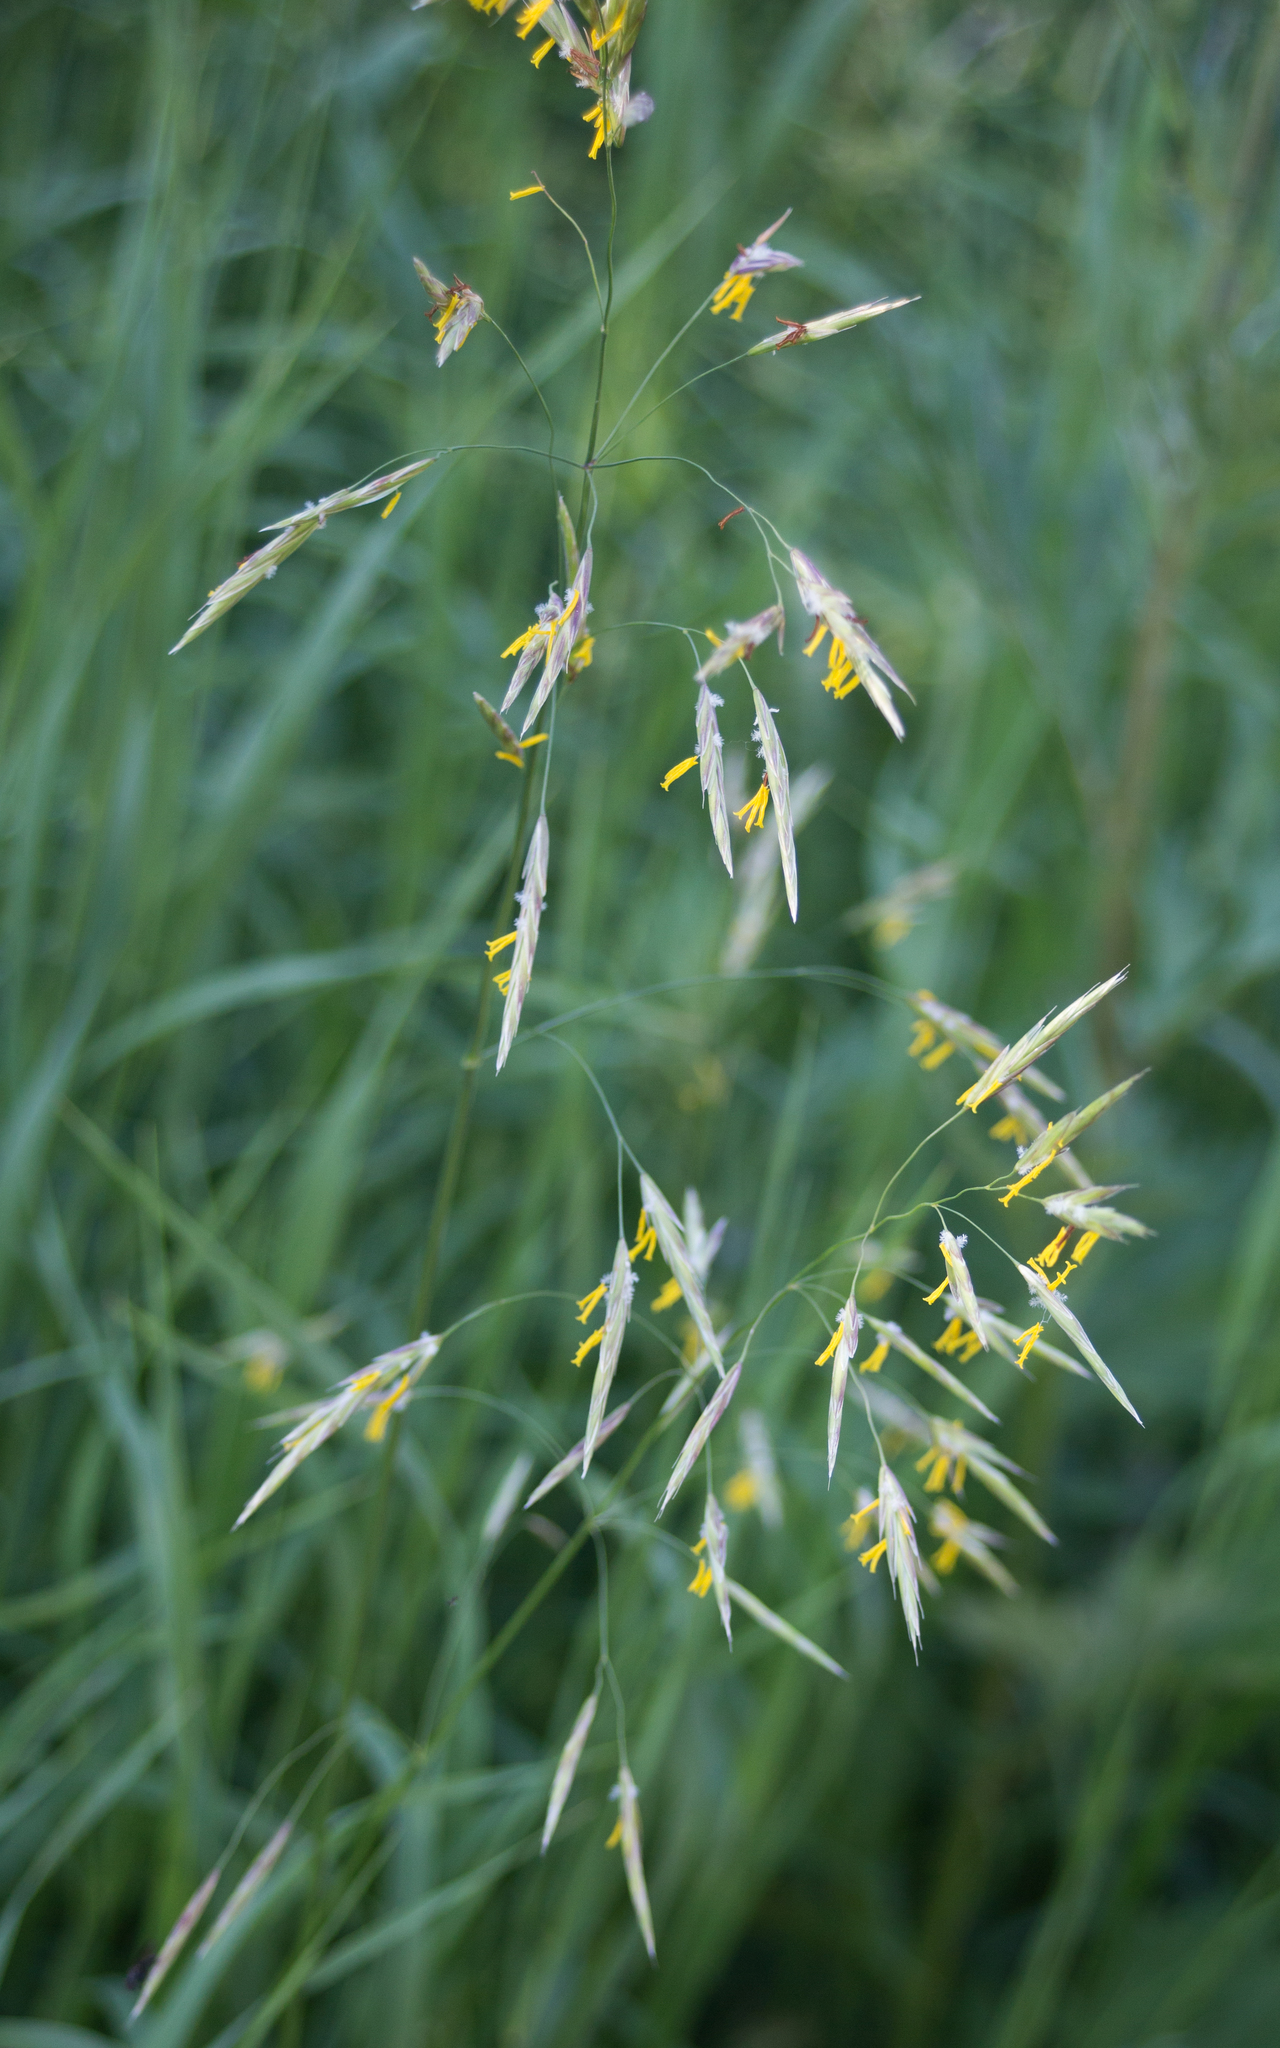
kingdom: Plantae
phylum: Tracheophyta
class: Liliopsida
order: Poales
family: Poaceae
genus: Bromus
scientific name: Bromus inermis
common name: Smooth brome
